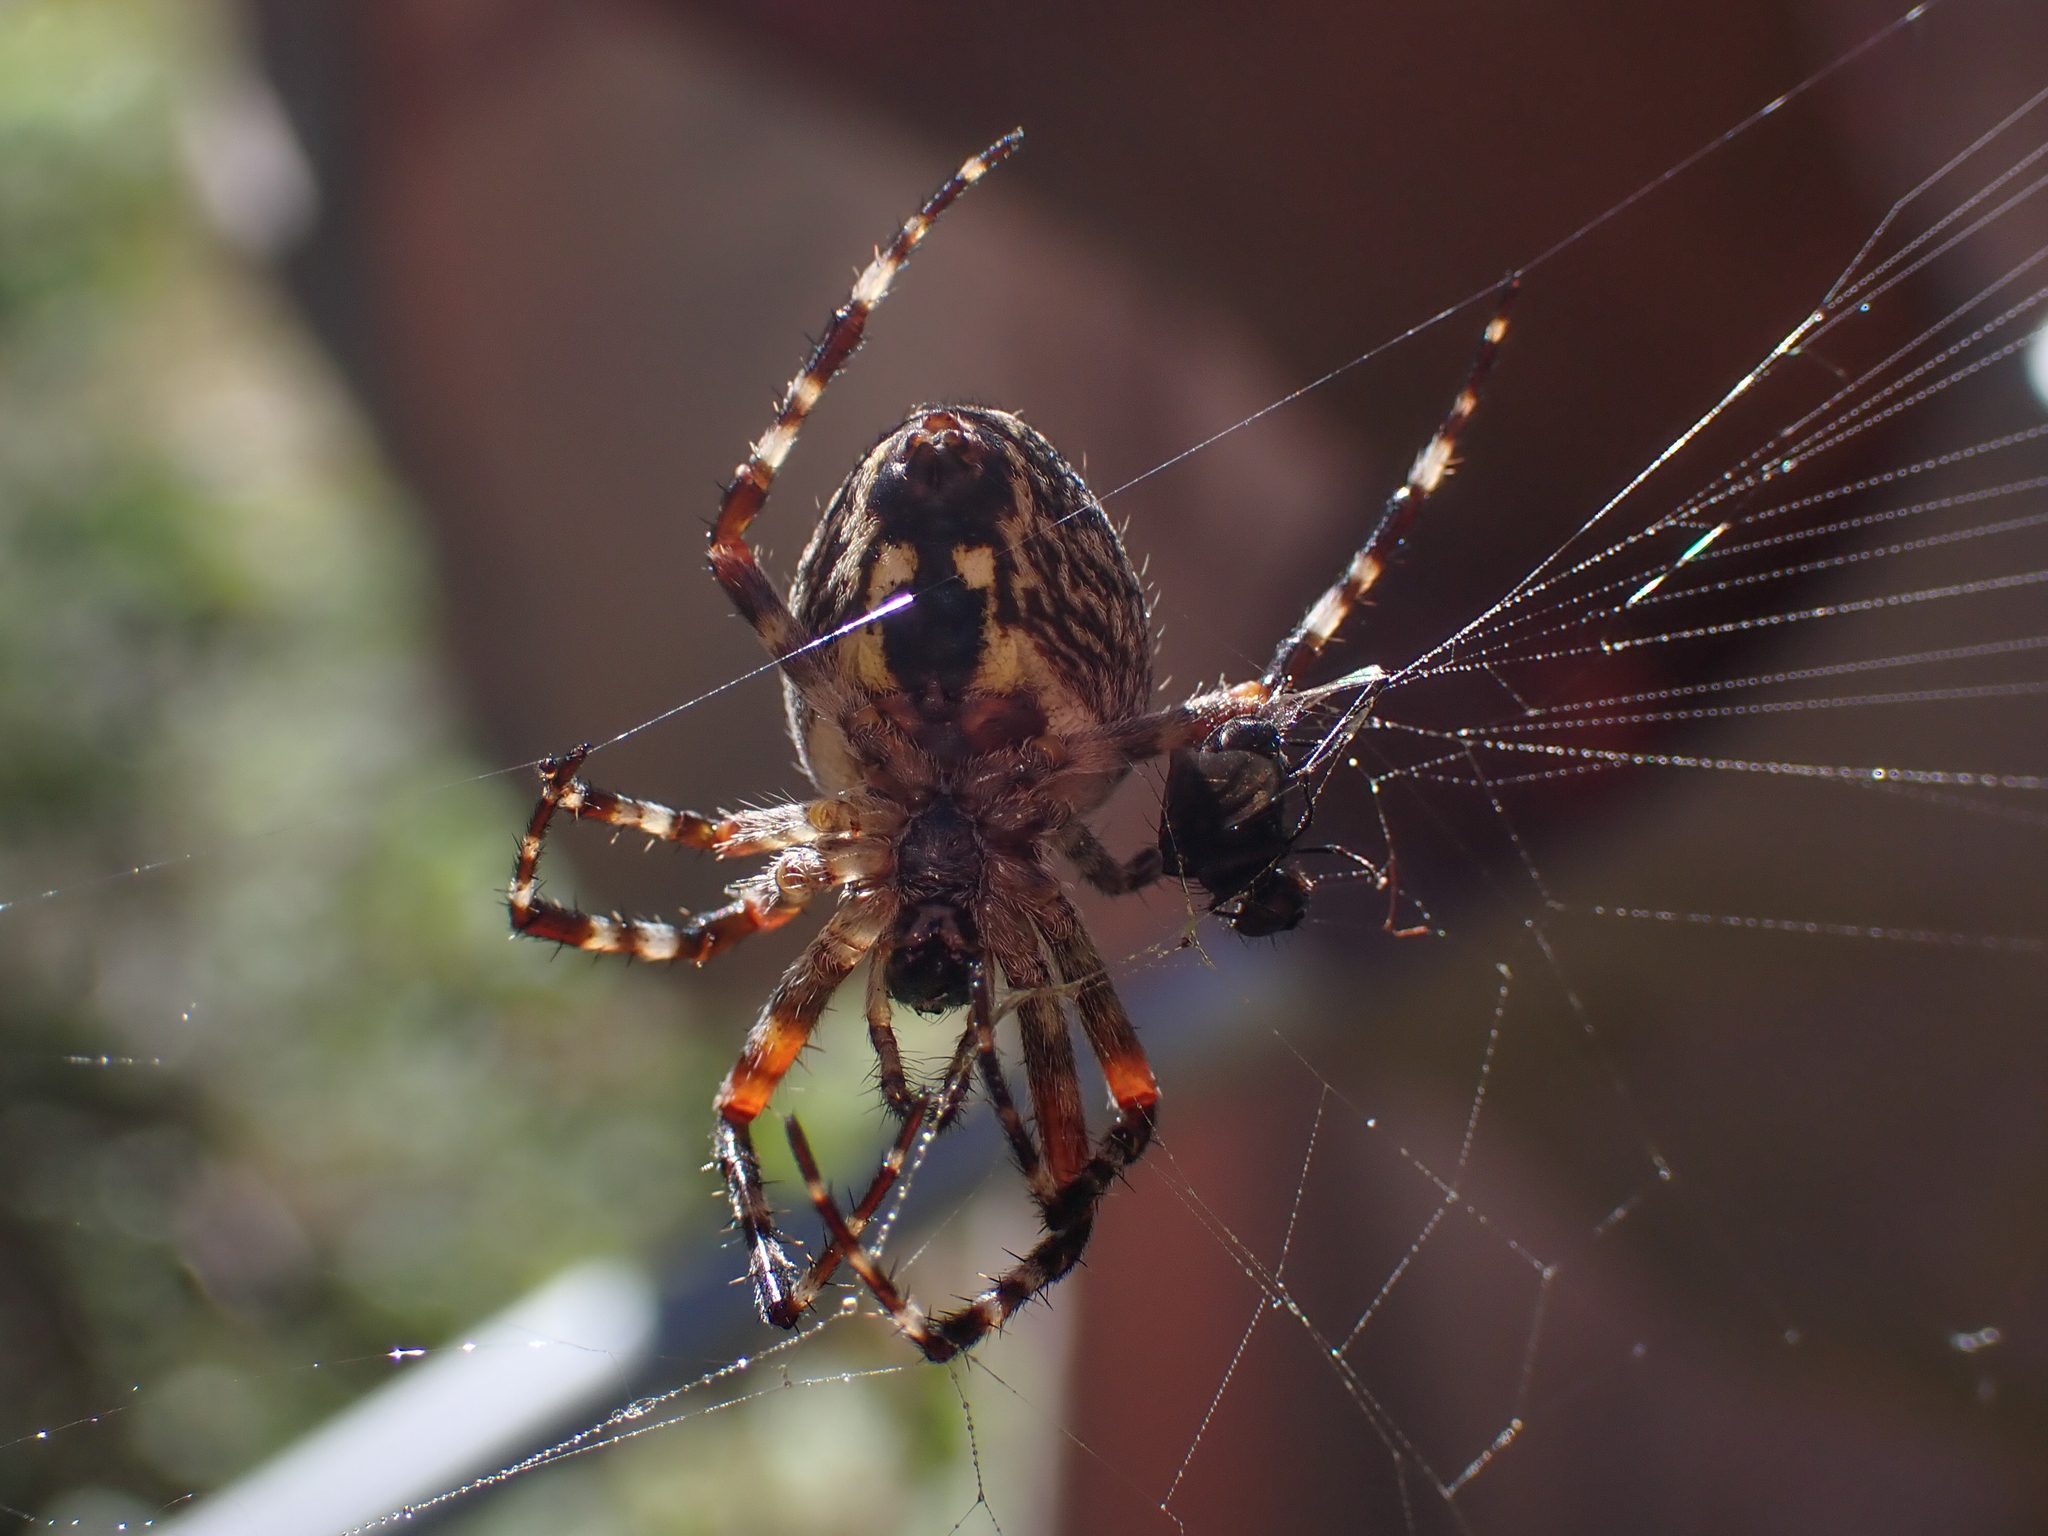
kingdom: Animalia
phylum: Arthropoda
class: Arachnida
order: Araneae
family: Araneidae
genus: Araneus
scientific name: Araneus nordmanni
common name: Nordmann's orbweaver
